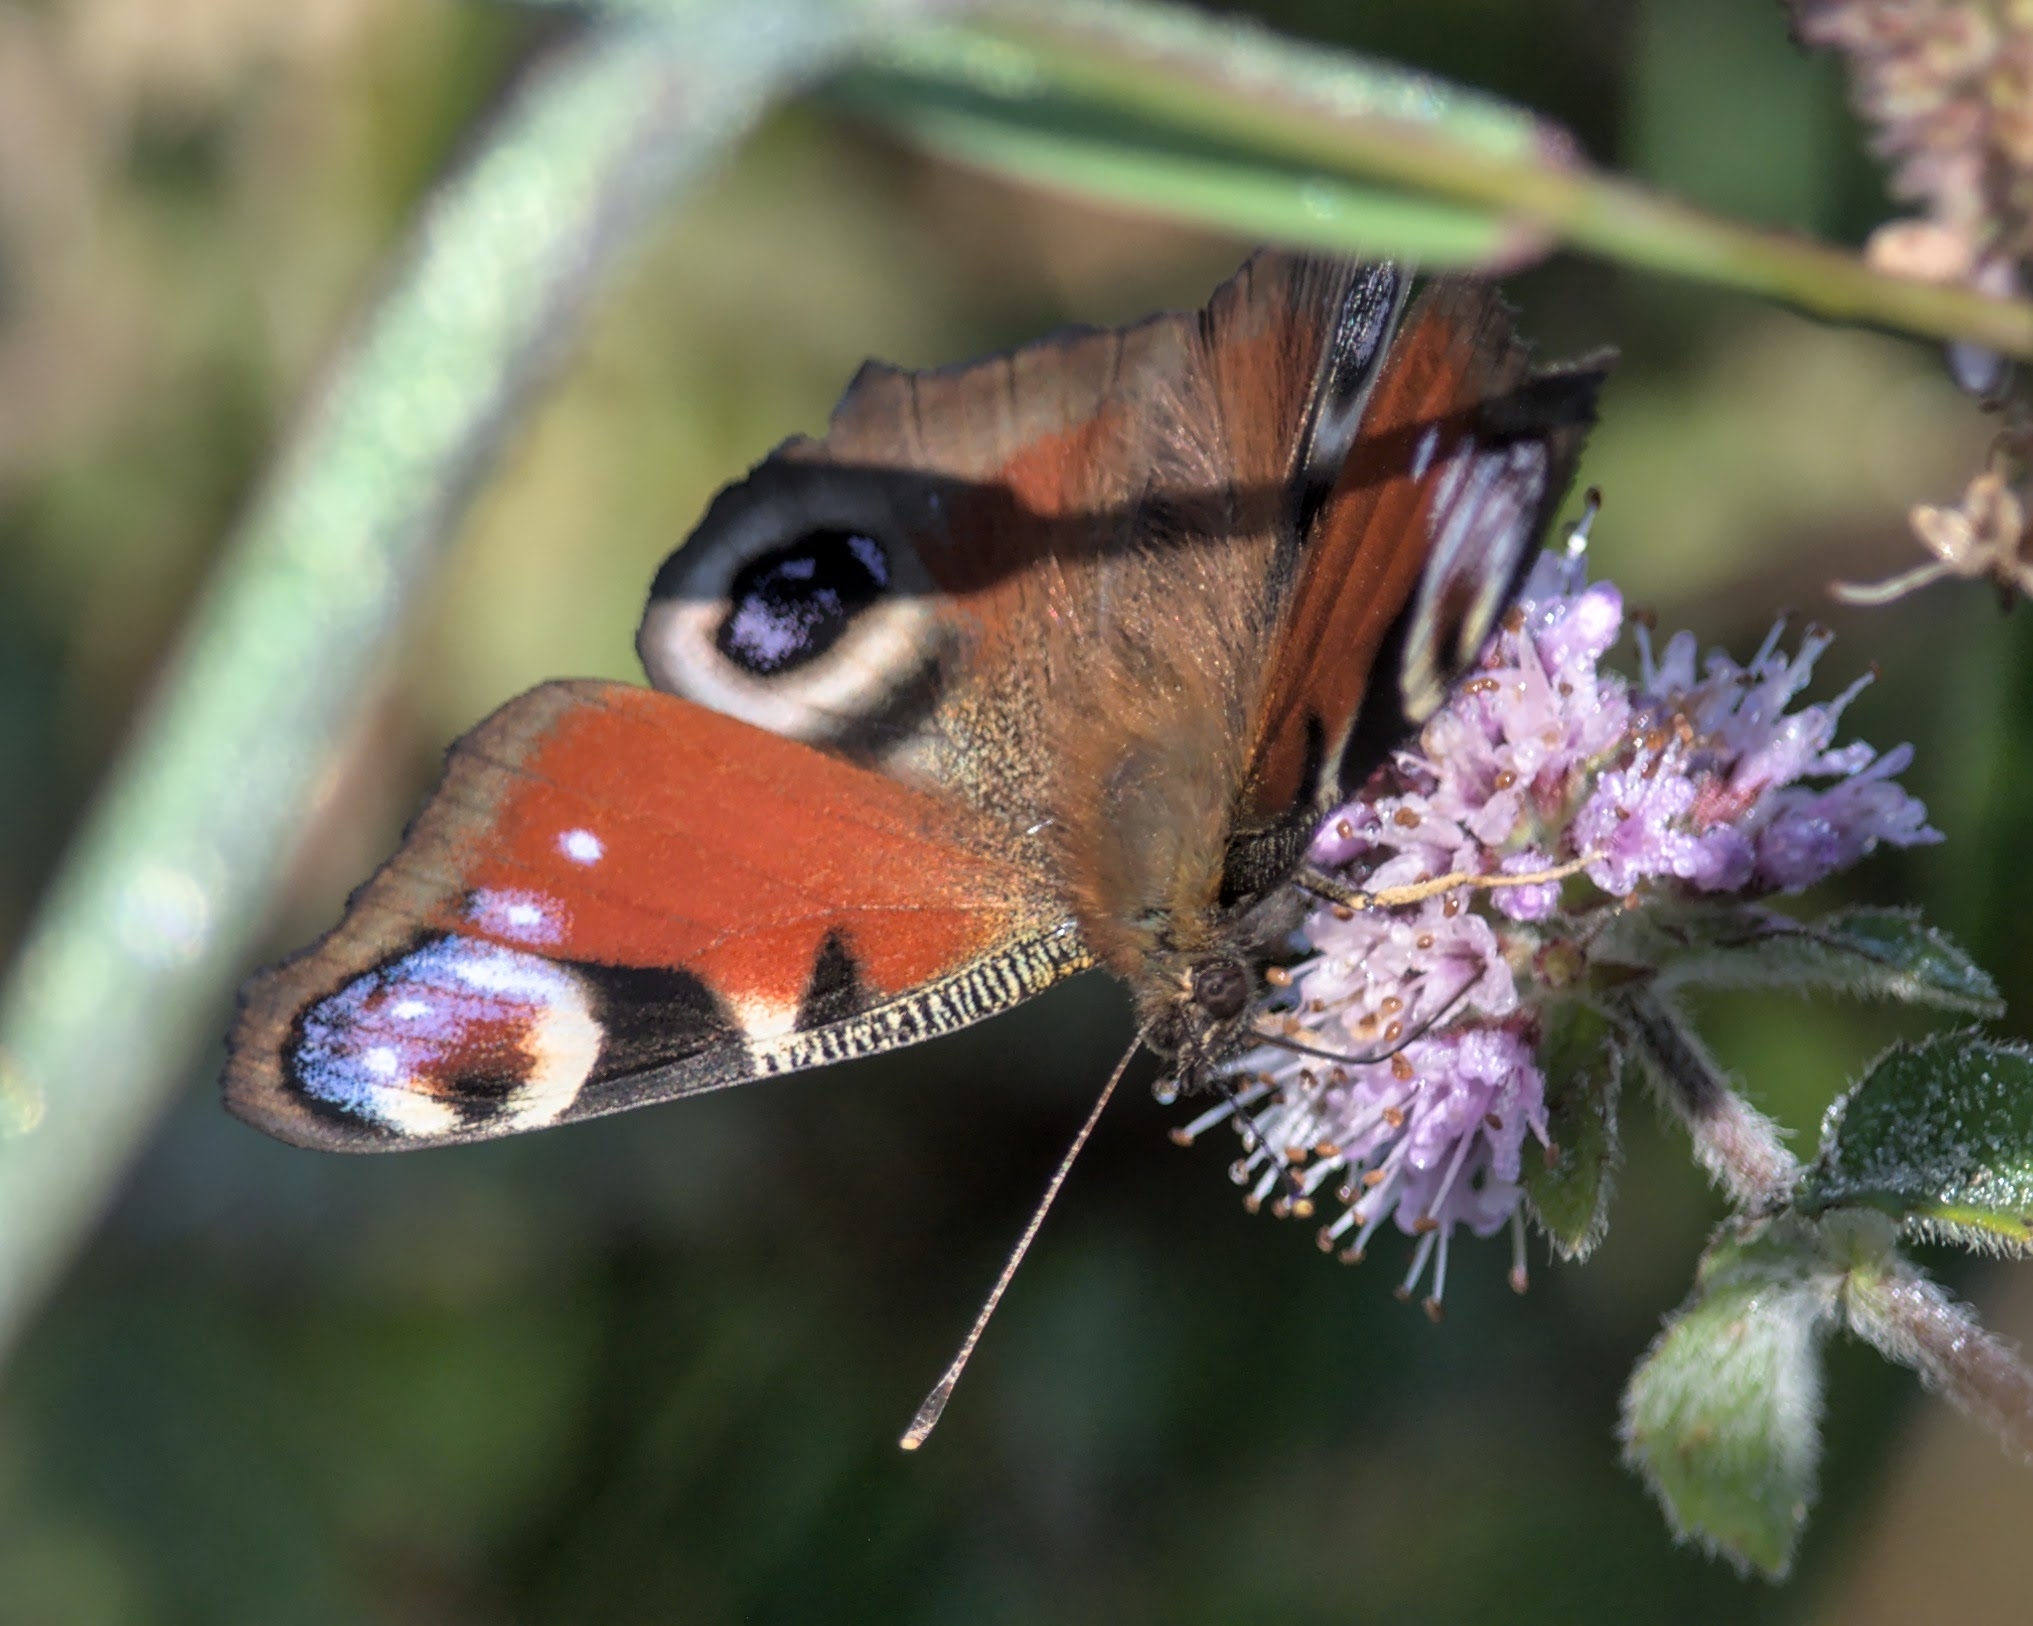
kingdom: Animalia
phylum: Arthropoda
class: Insecta
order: Lepidoptera
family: Nymphalidae
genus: Aglais
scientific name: Aglais io
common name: Peacock
